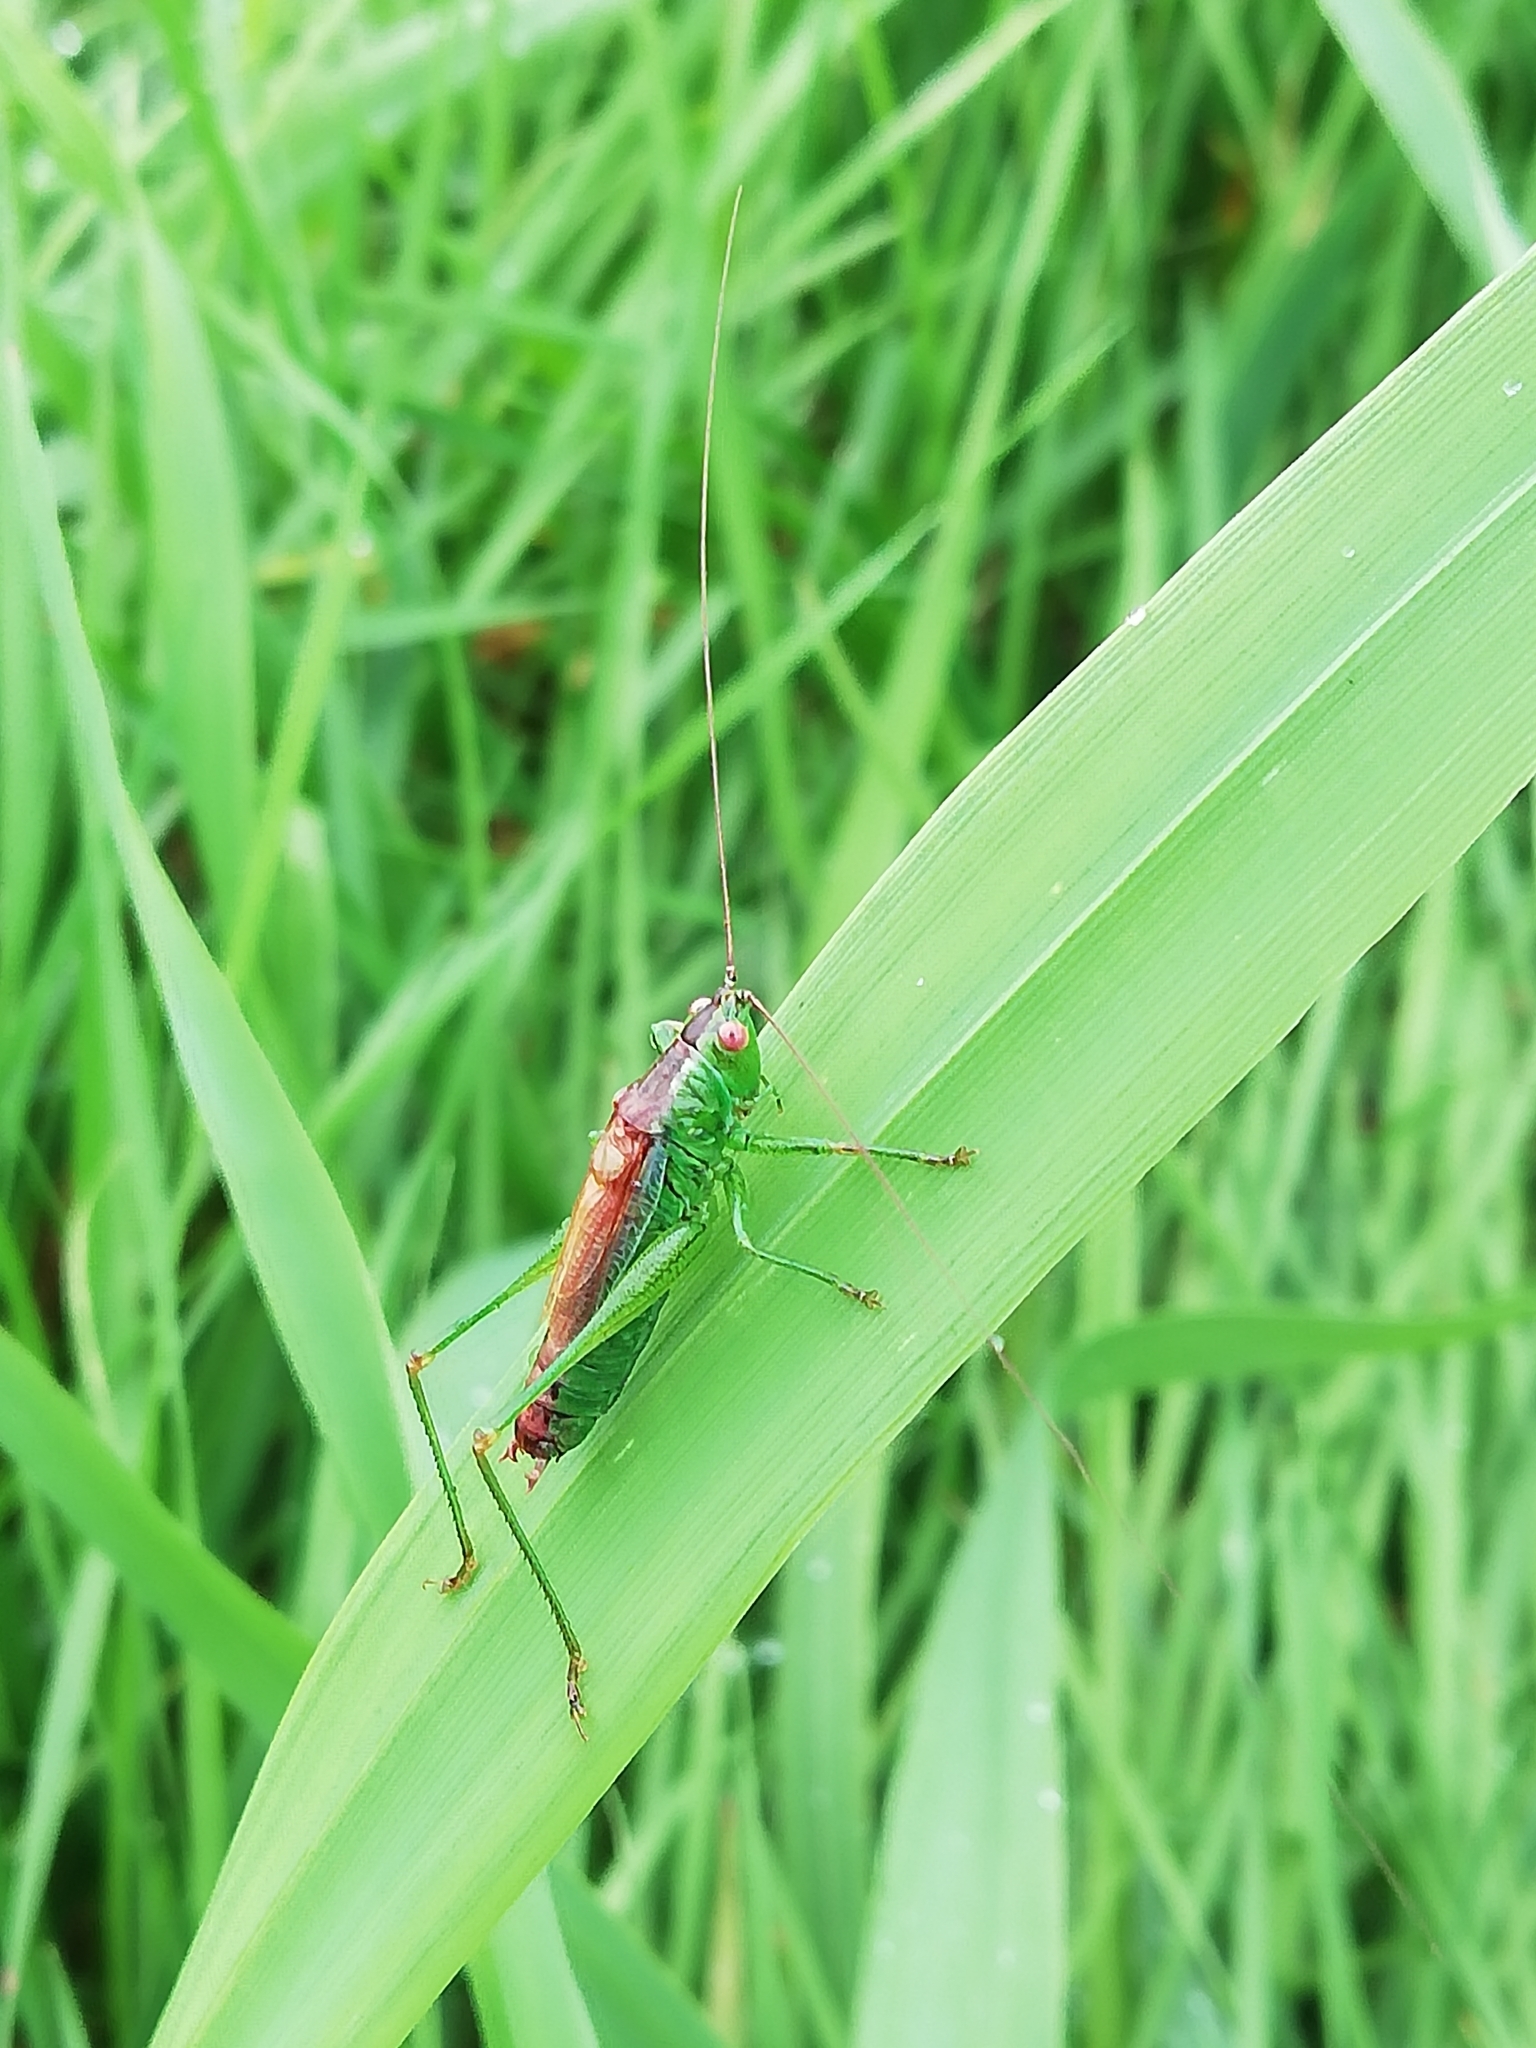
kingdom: Animalia
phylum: Arthropoda
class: Insecta
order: Orthoptera
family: Tettigoniidae
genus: Conocephalus
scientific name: Conocephalus dorsalis
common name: Short-winged conehead
